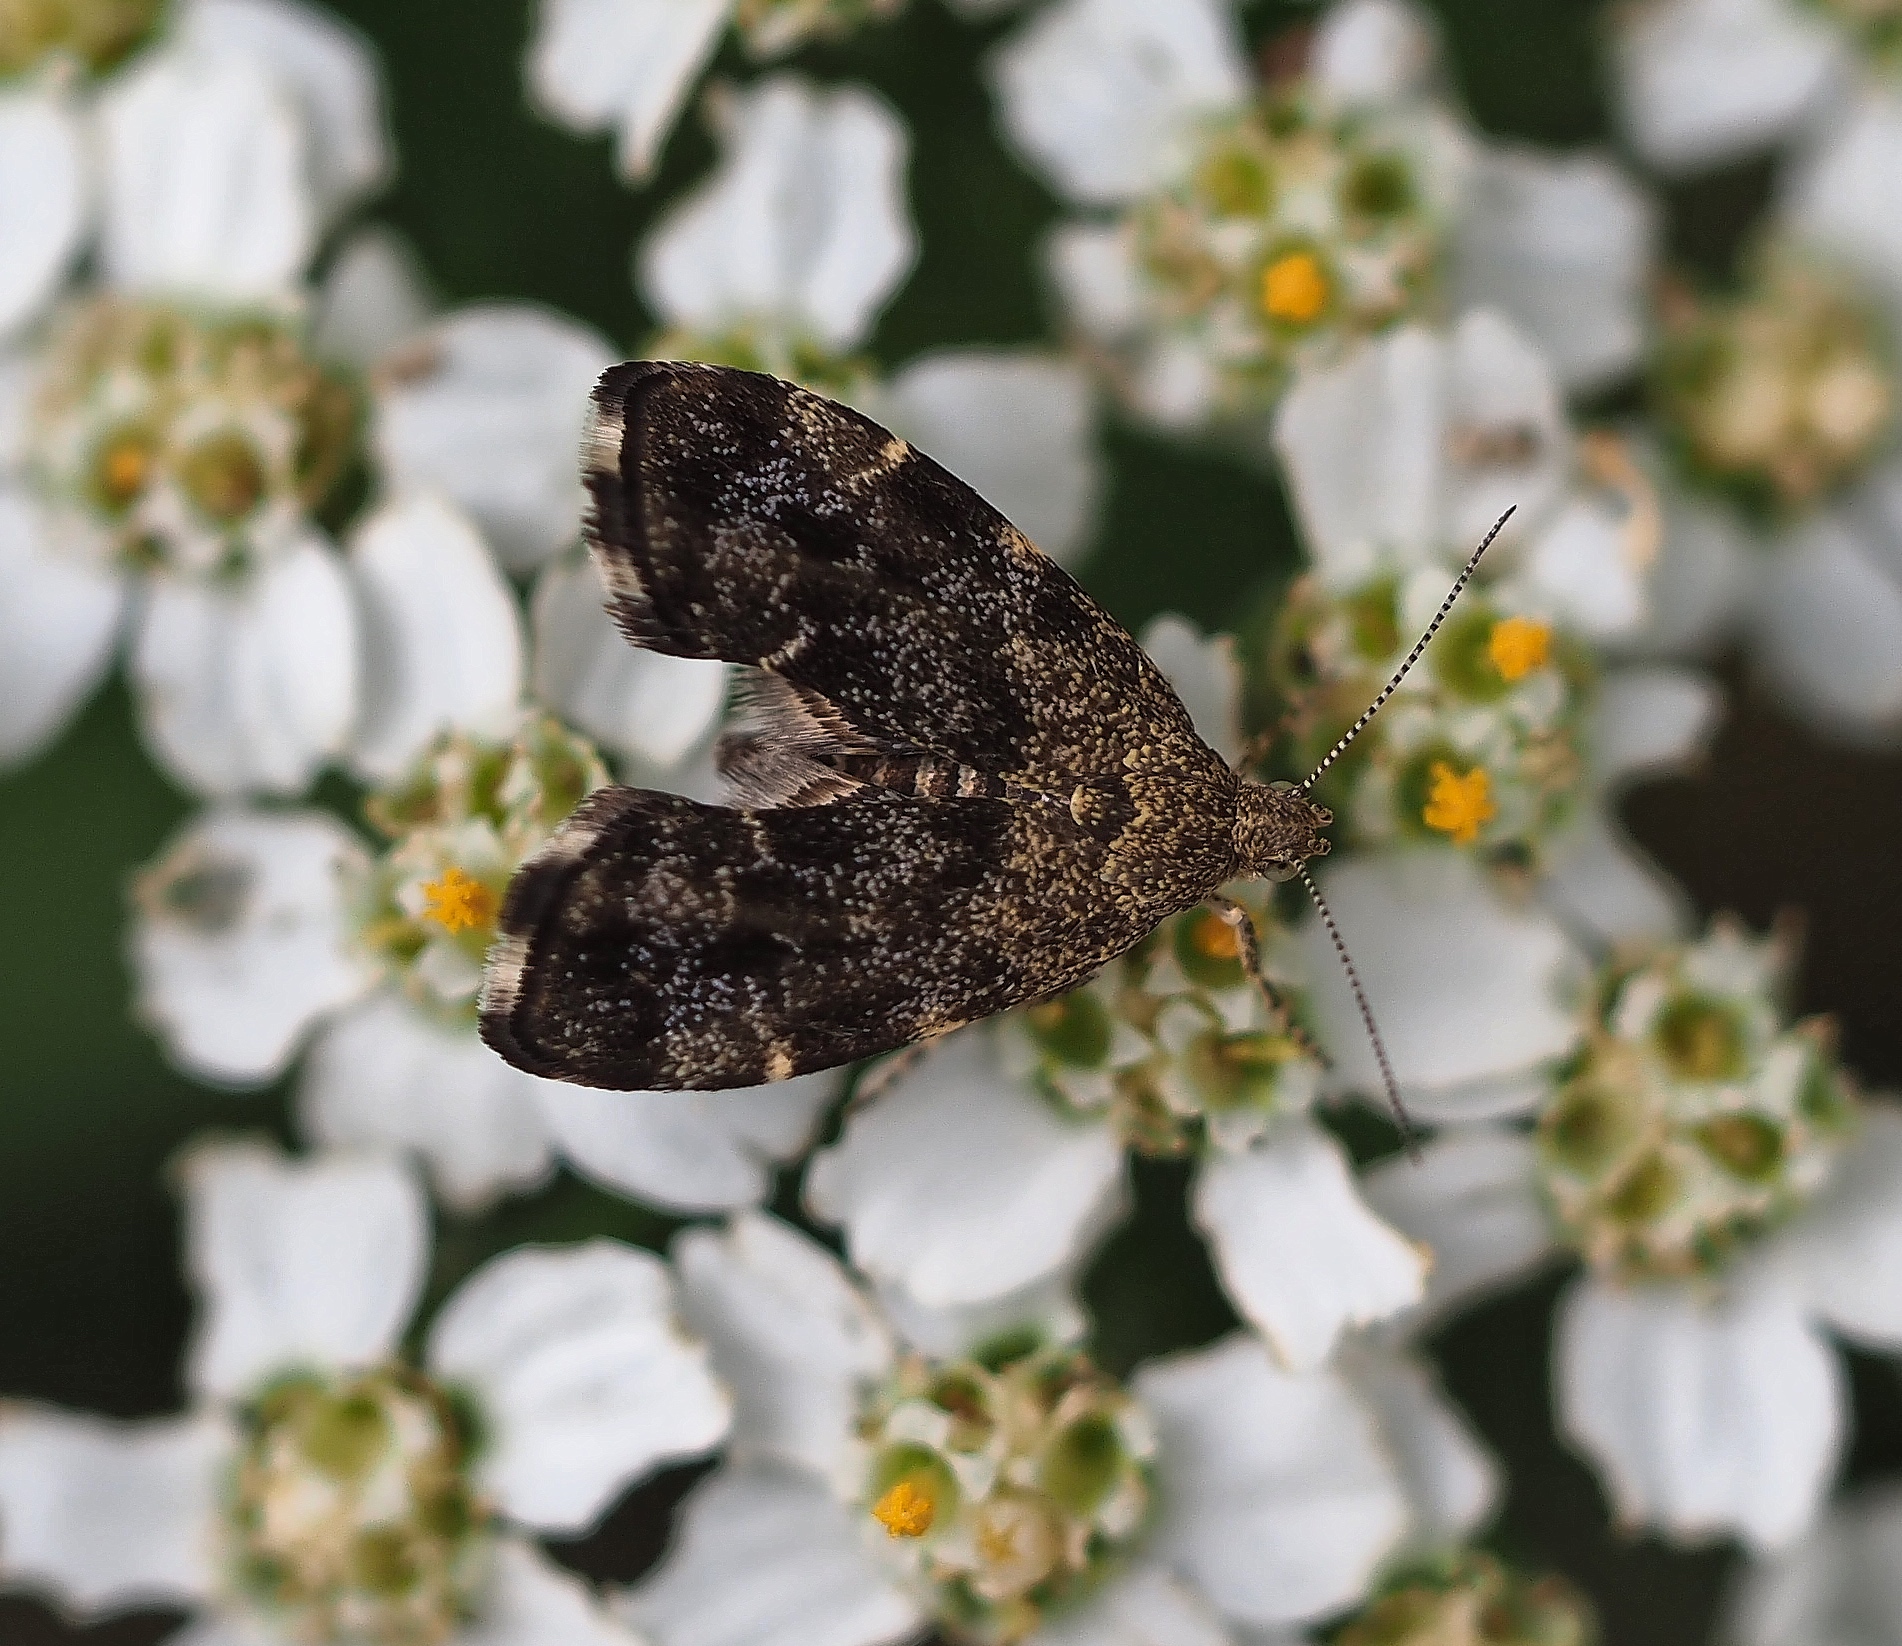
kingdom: Animalia
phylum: Arthropoda
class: Insecta
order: Lepidoptera
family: Choreutidae
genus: Anthophila
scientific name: Anthophila fabriciana
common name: Nettle-tap
